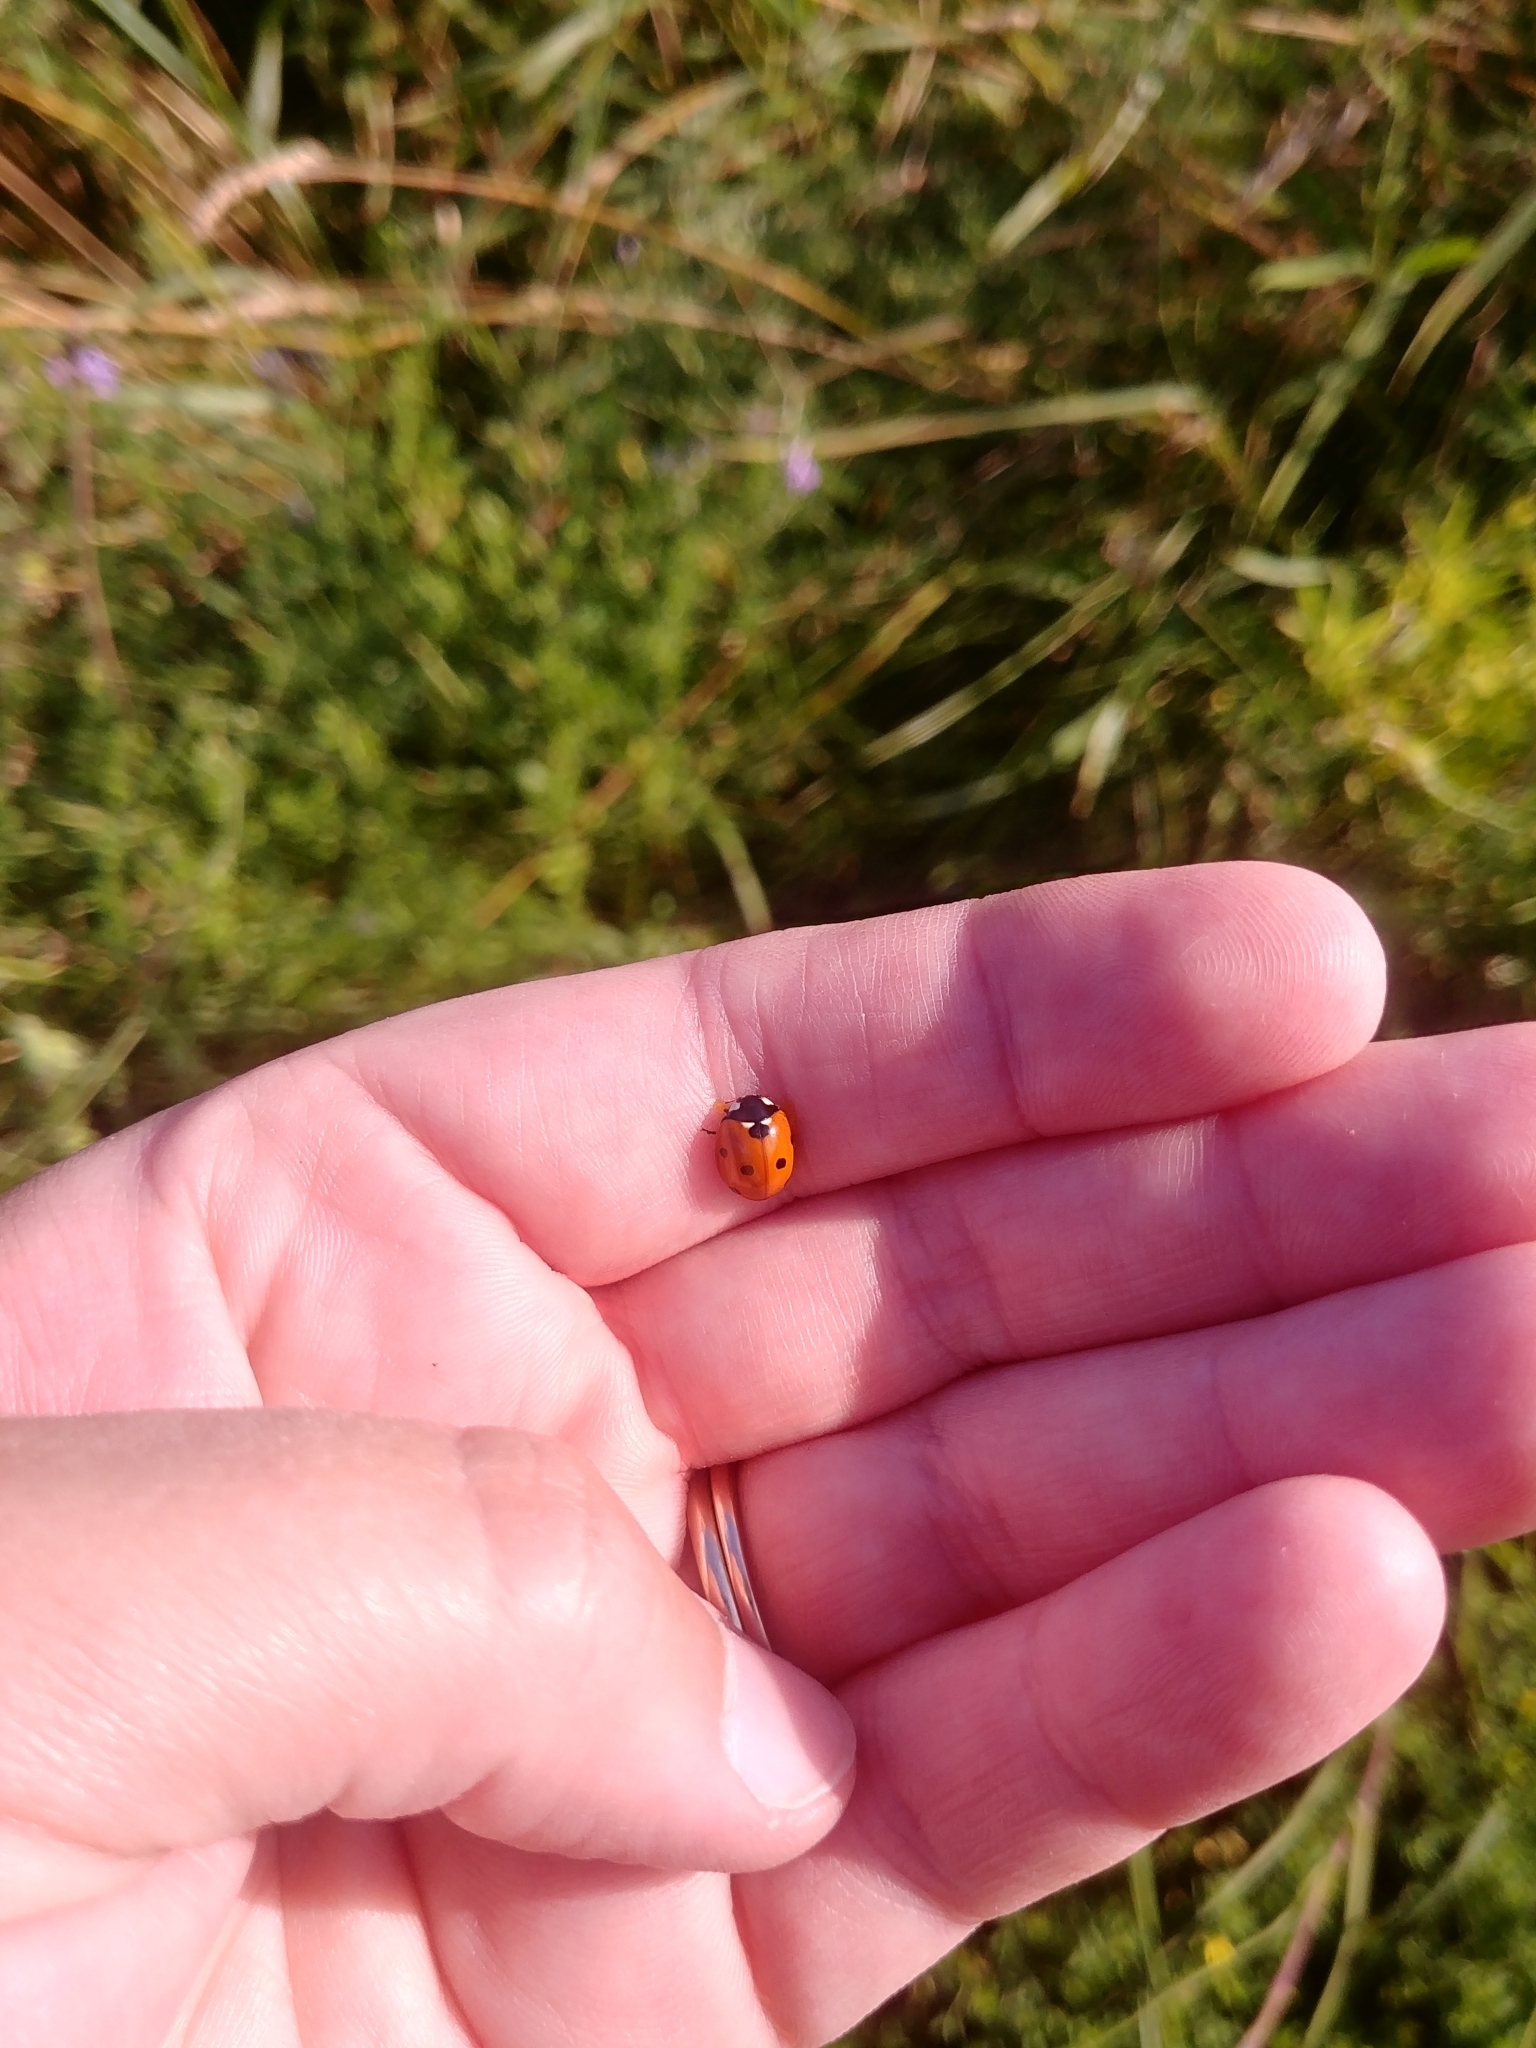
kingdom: Animalia
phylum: Arthropoda
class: Insecta
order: Coleoptera
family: Coccinellidae
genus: Coccinella
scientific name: Coccinella septempunctata
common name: Sevenspotted lady beetle
